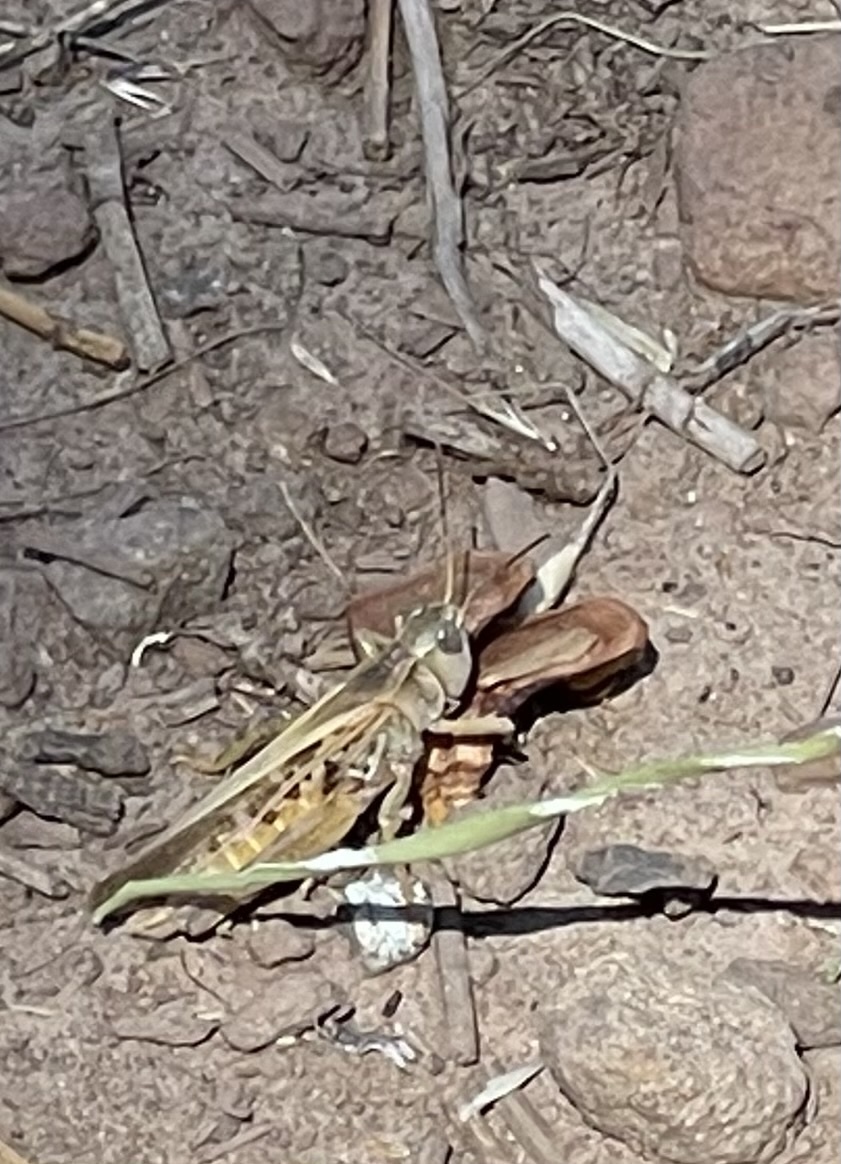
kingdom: Animalia
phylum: Arthropoda
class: Insecta
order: Orthoptera
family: Acrididae
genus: Camnula
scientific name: Camnula pellucida
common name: Clear-winged grasshopper
